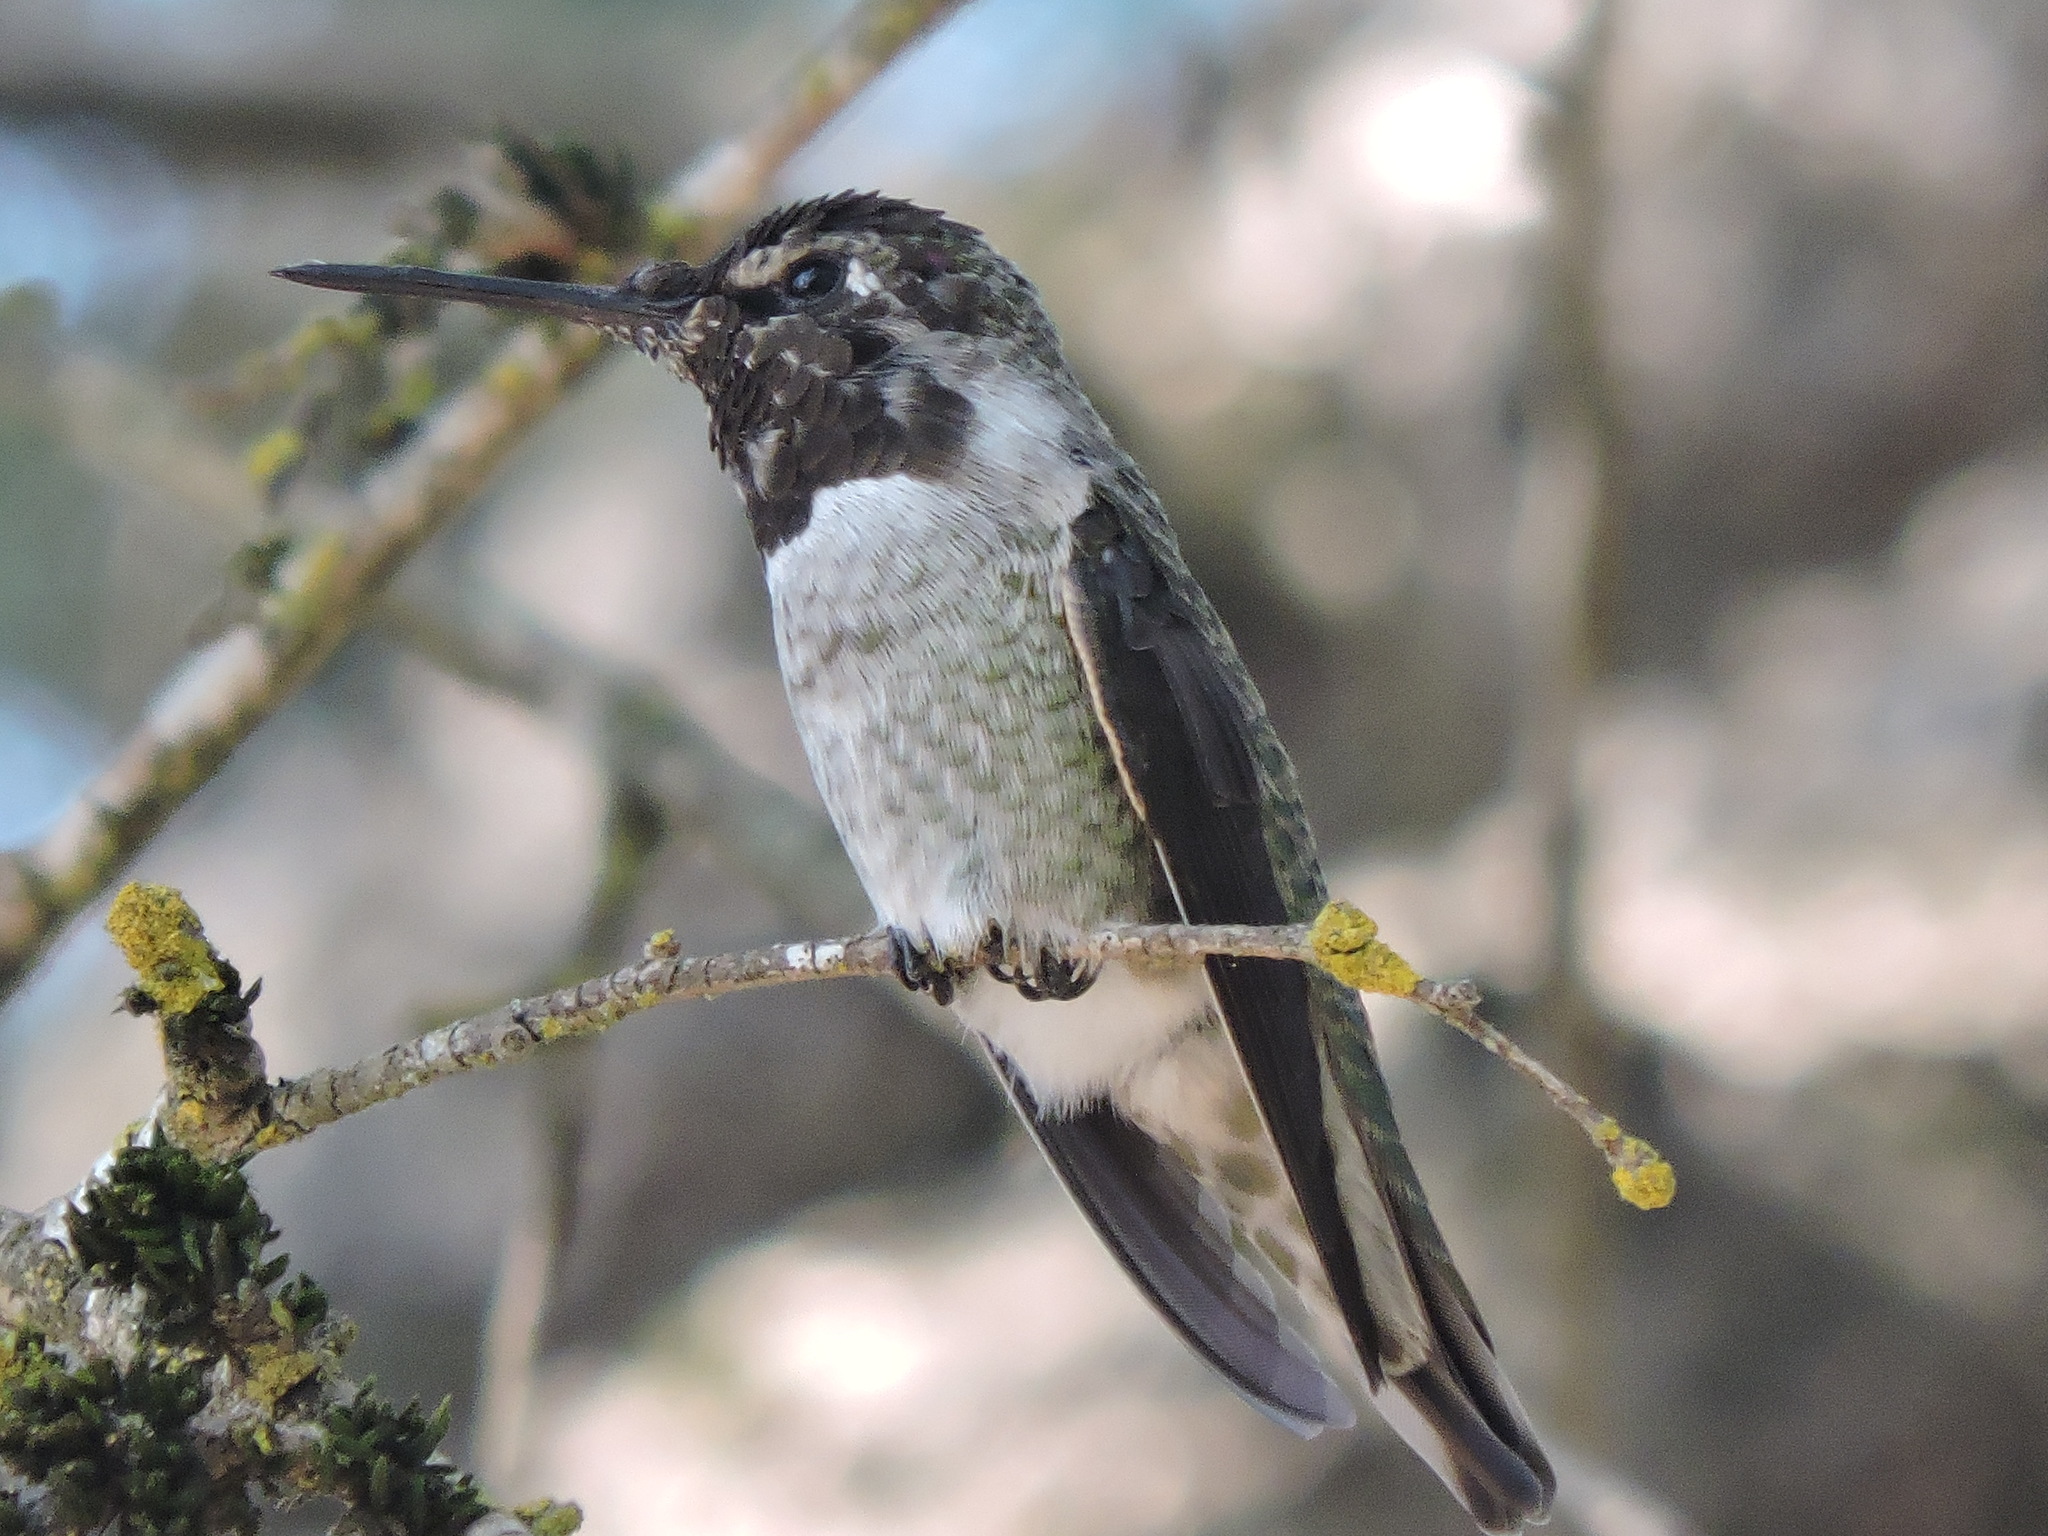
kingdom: Animalia
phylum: Chordata
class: Aves
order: Apodiformes
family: Trochilidae
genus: Calypte
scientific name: Calypte anna
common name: Anna's hummingbird
